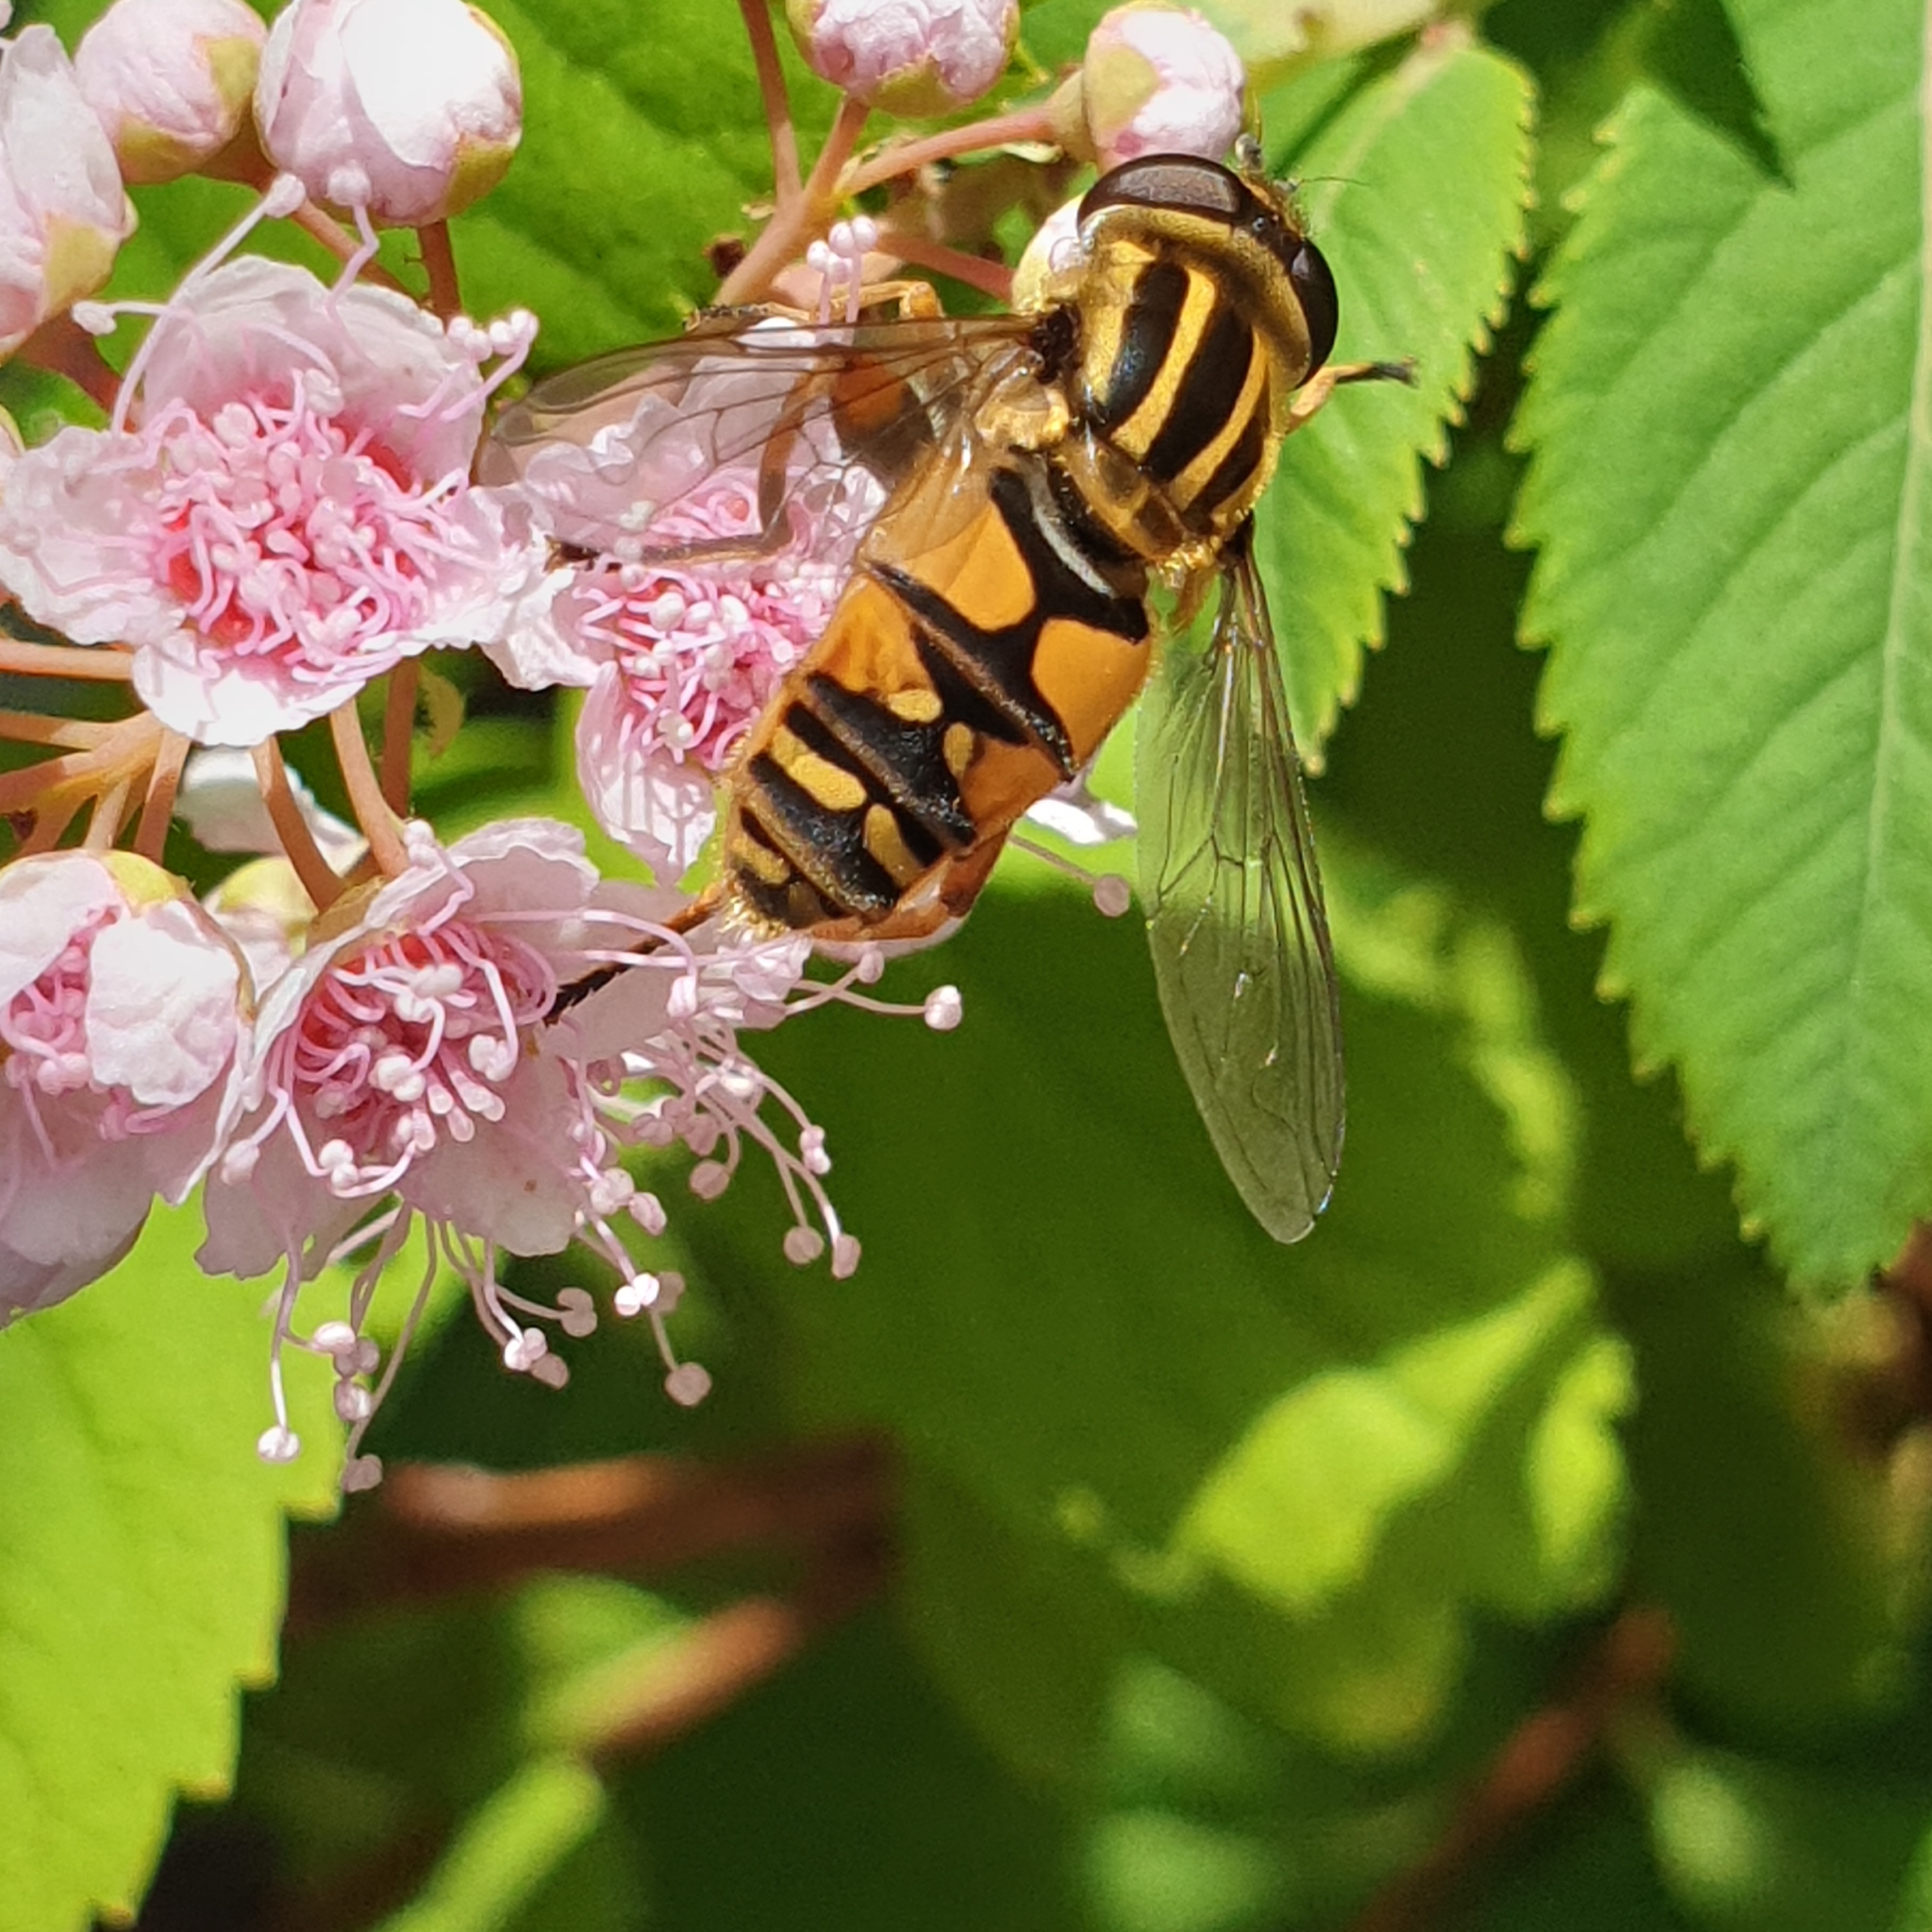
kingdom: Animalia
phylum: Arthropoda
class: Insecta
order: Diptera
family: Syrphidae
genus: Helophilus
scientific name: Helophilus pendulus
